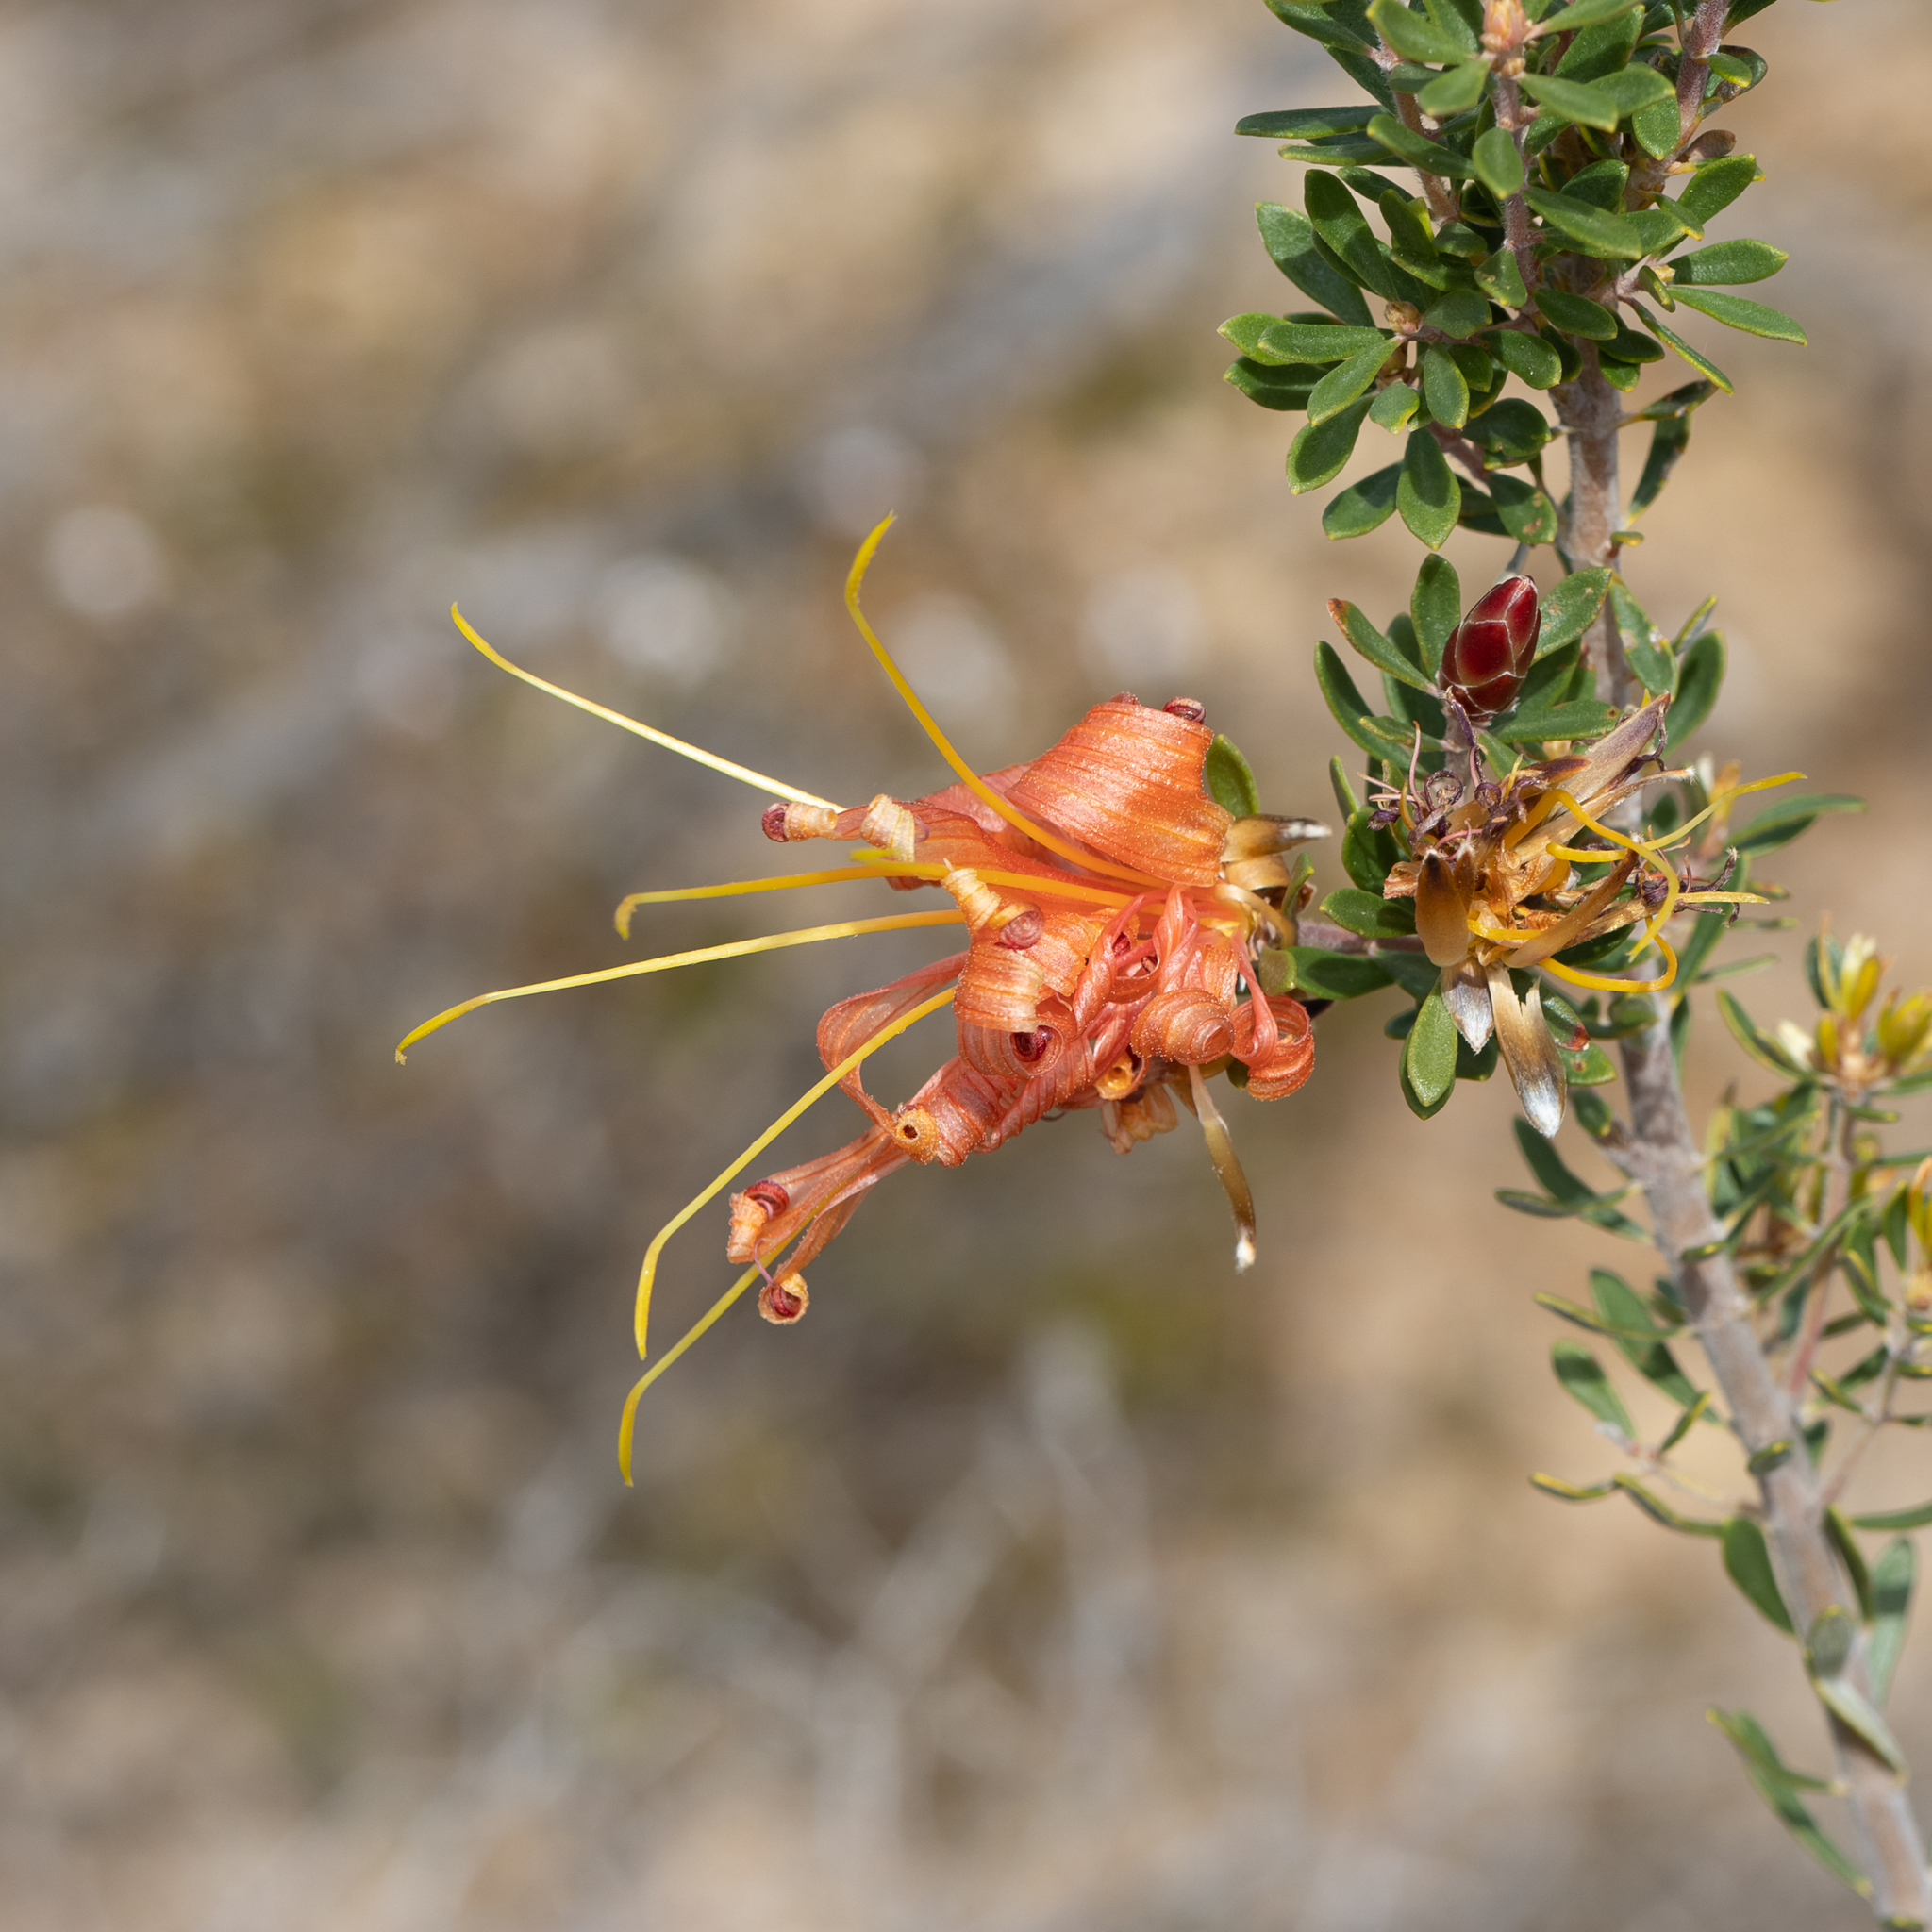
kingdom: Plantae
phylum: Tracheophyta
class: Magnoliopsida
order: Proteales
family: Proteaceae
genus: Lambertia
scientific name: Lambertia inermis
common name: Chittick
